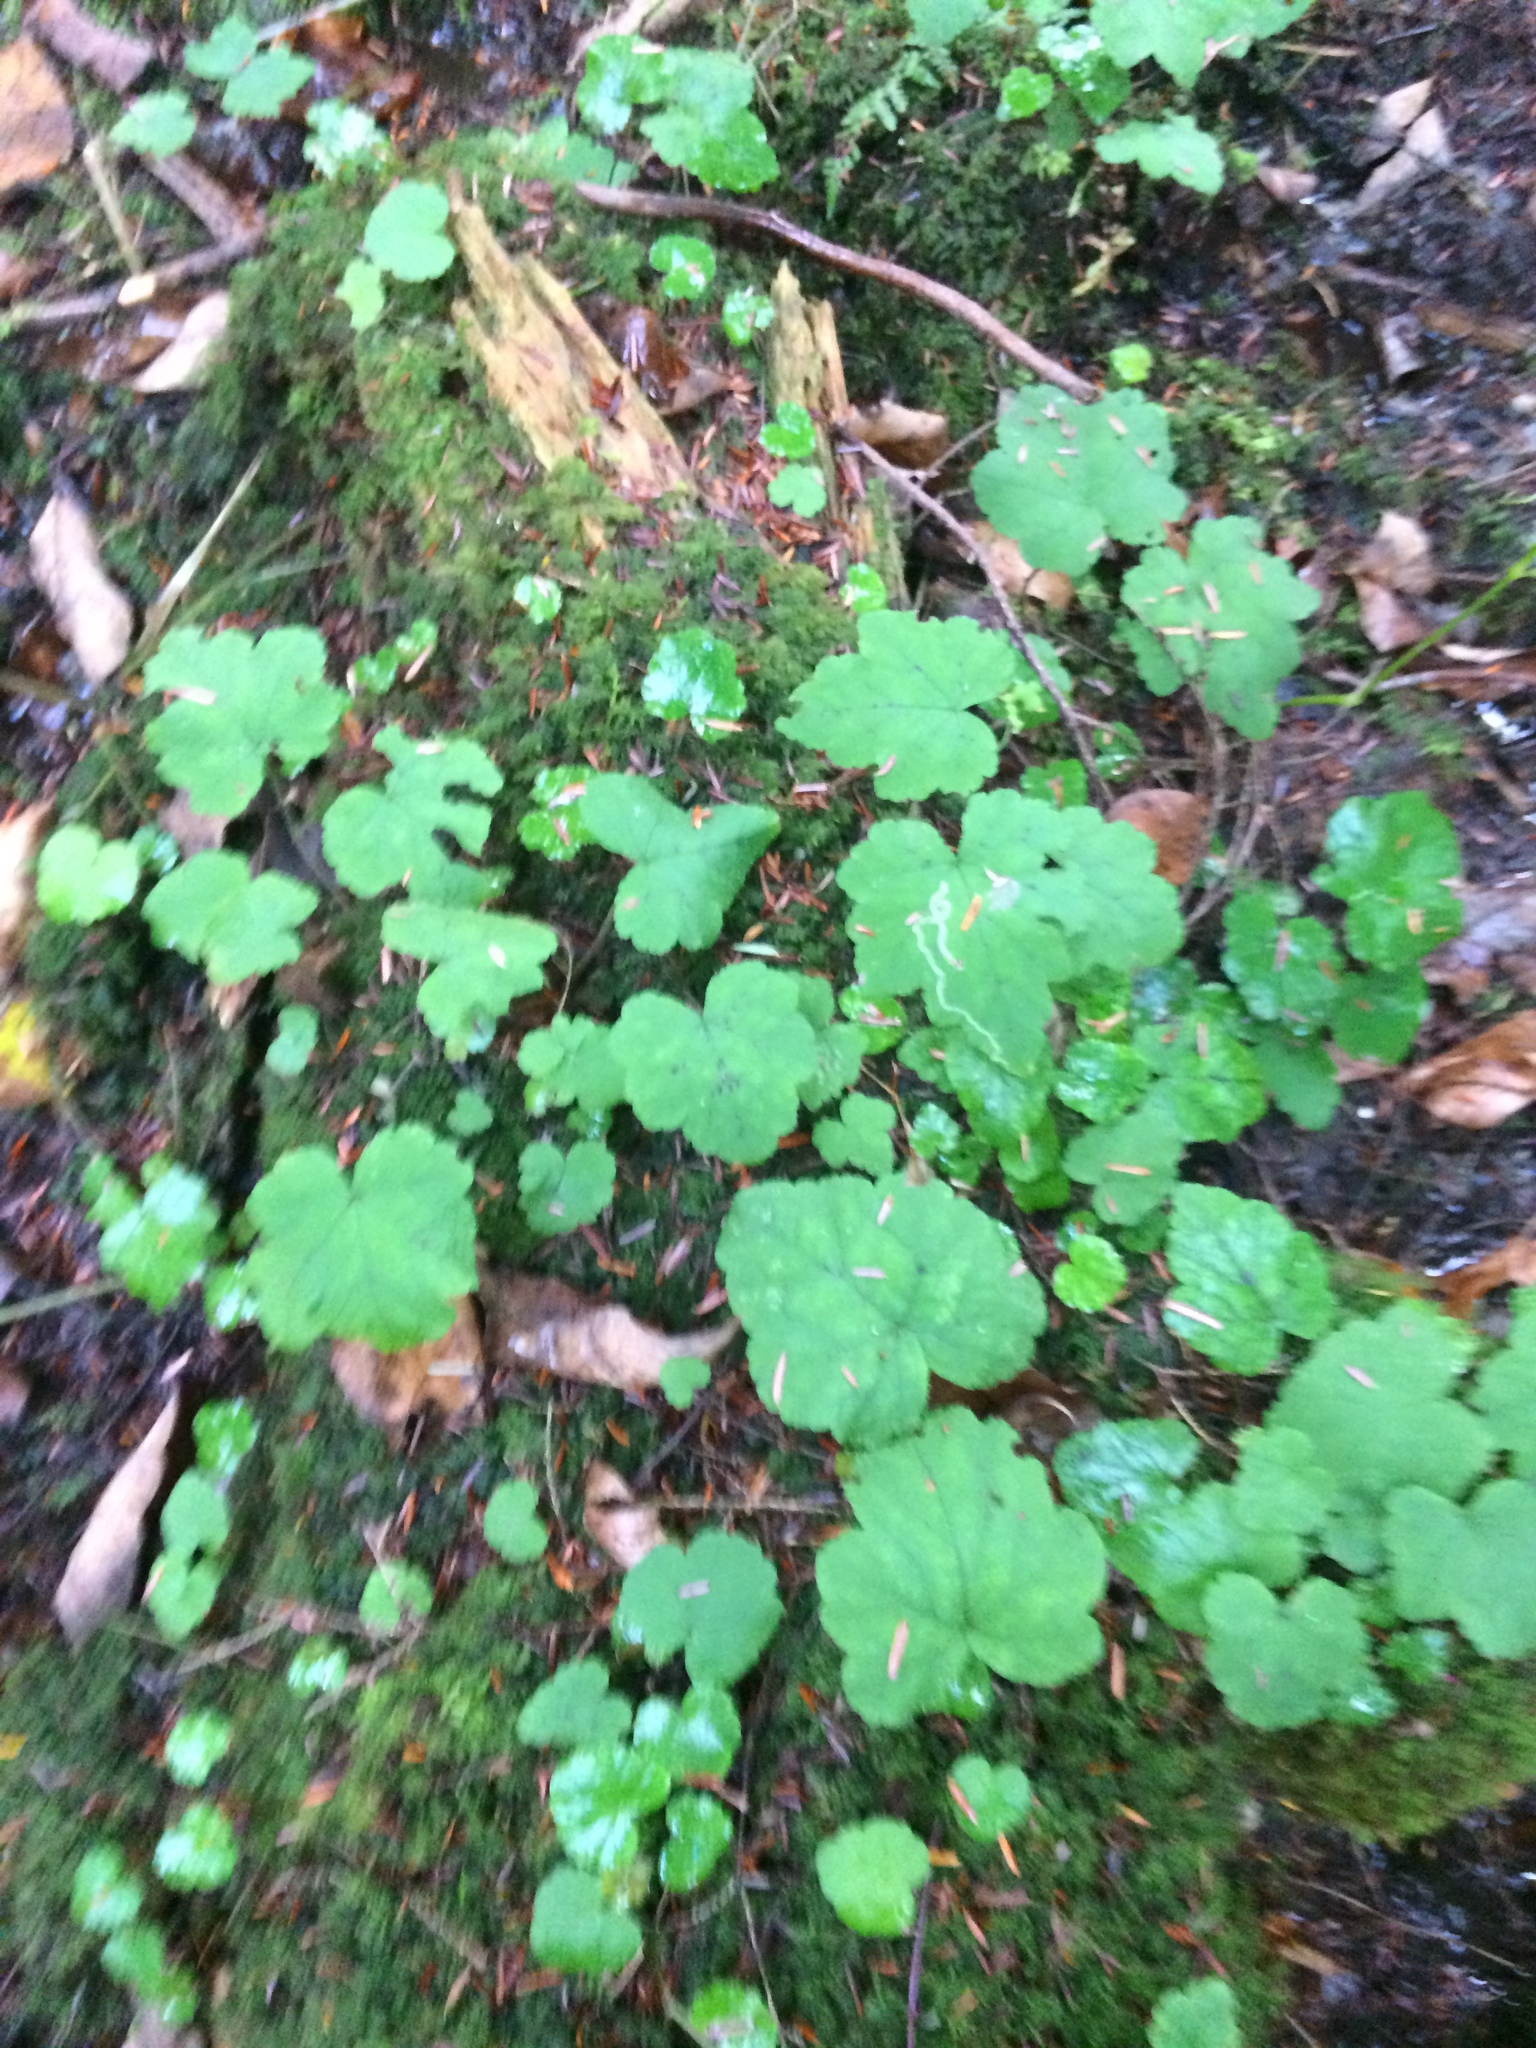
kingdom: Plantae
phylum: Tracheophyta
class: Magnoliopsida
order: Saxifragales
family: Saxifragaceae
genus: Tiarella
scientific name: Tiarella stolonifera
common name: Stoloniferous foamflower
